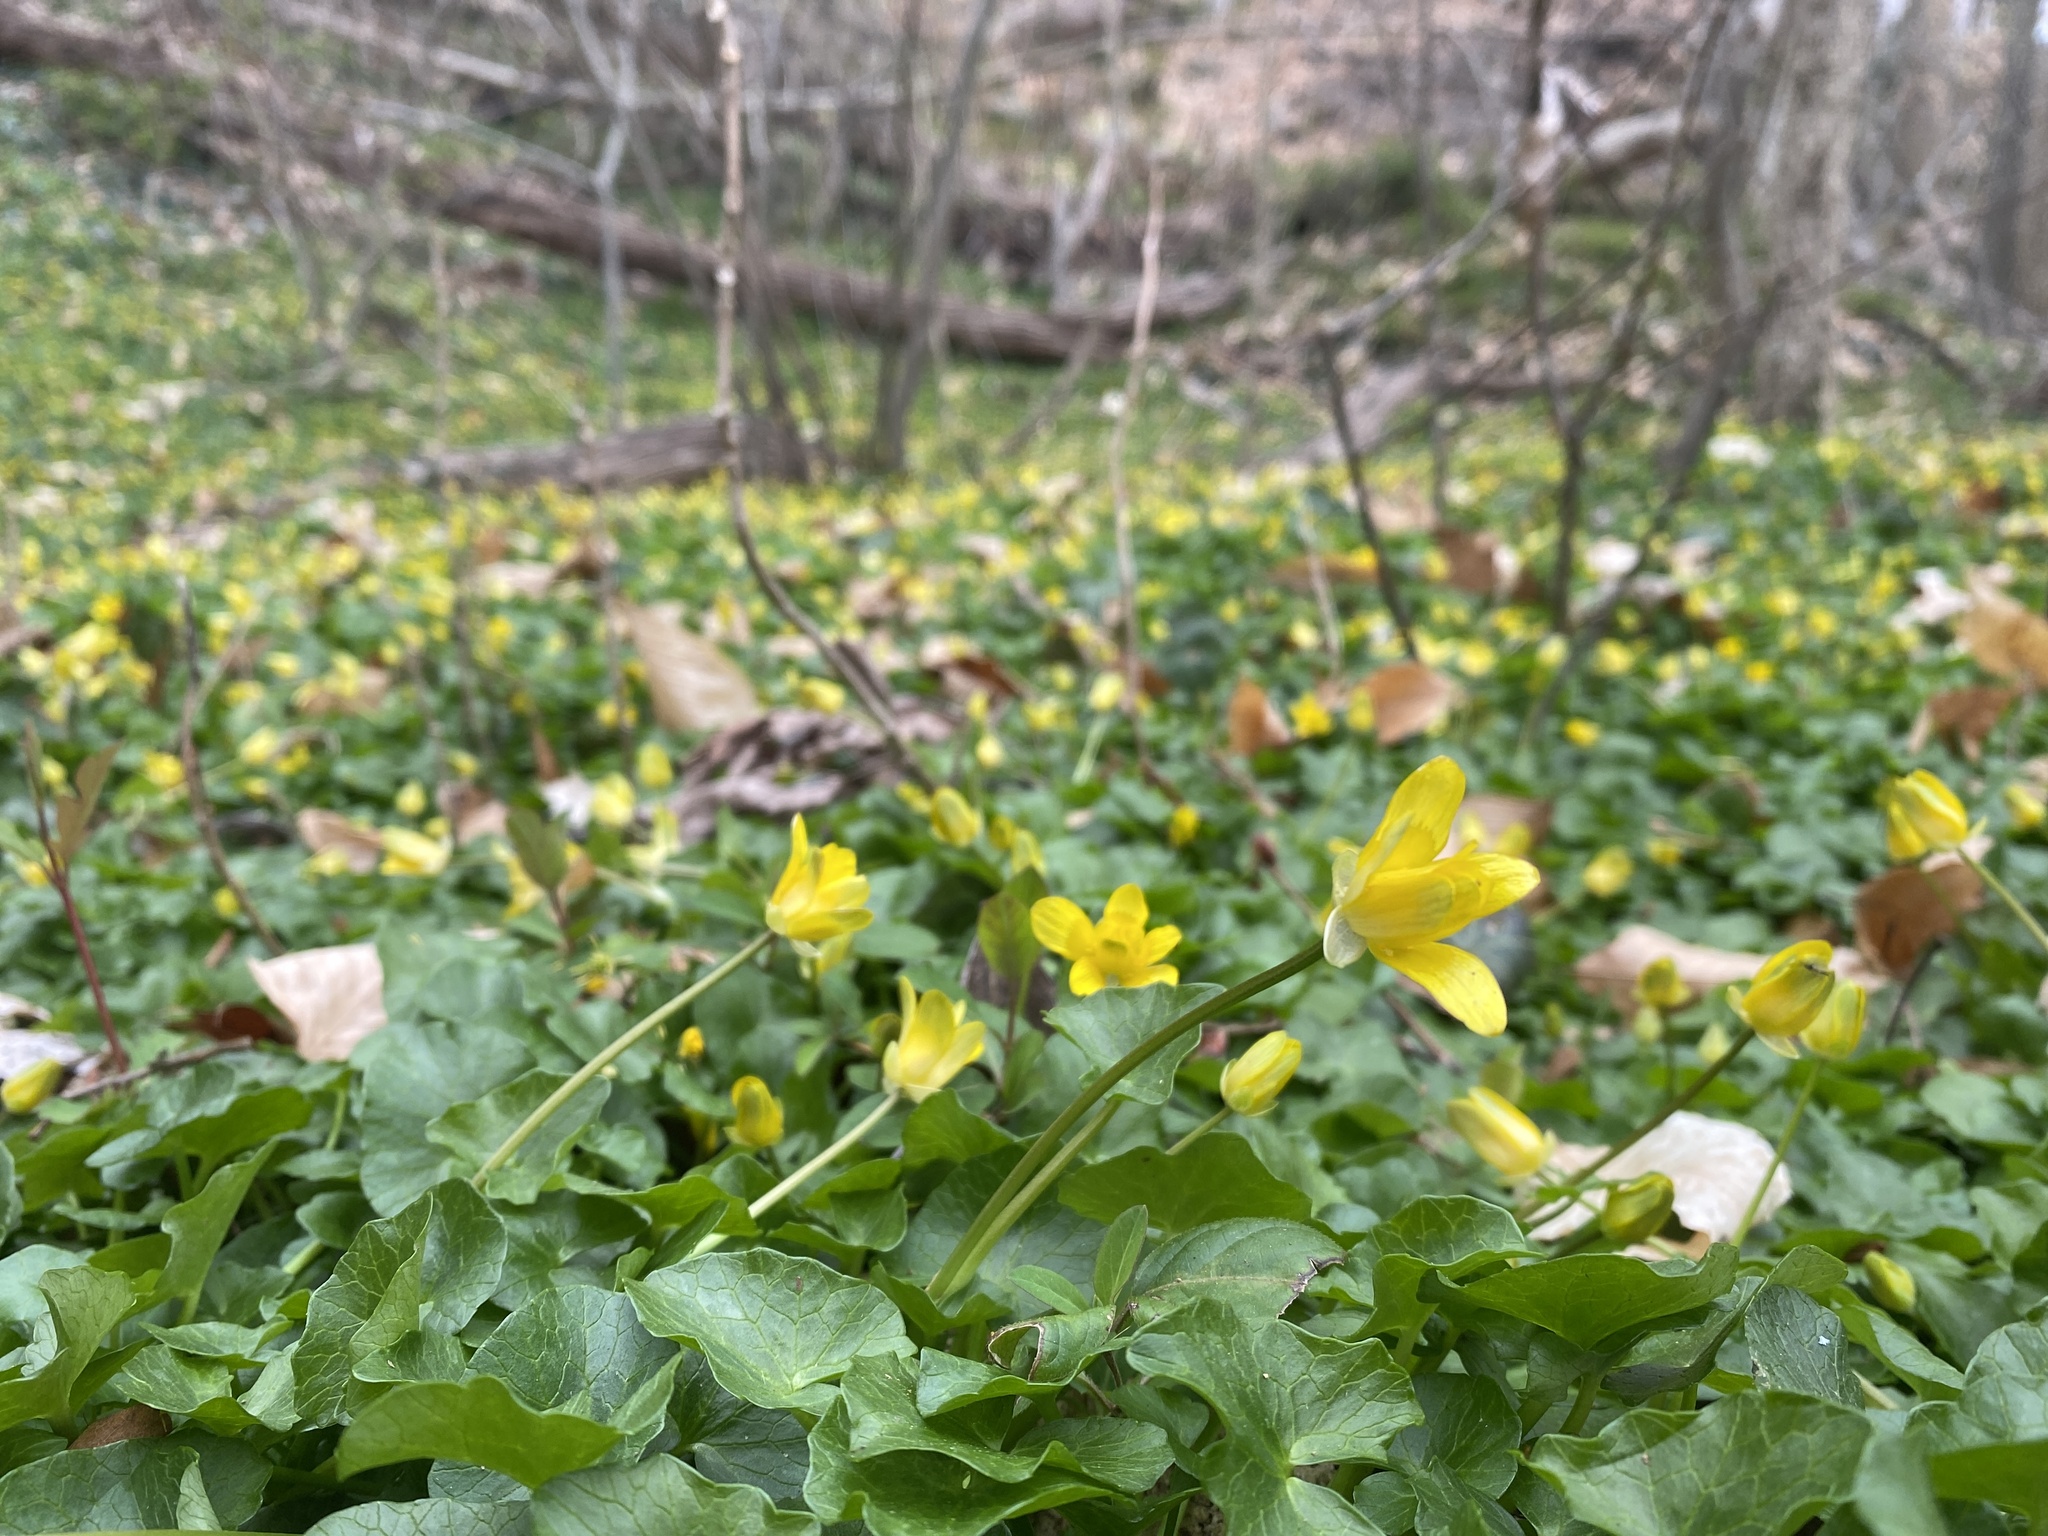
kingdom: Plantae
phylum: Tracheophyta
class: Magnoliopsida
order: Ranunculales
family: Ranunculaceae
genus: Ficaria
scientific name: Ficaria verna
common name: Lesser celandine
